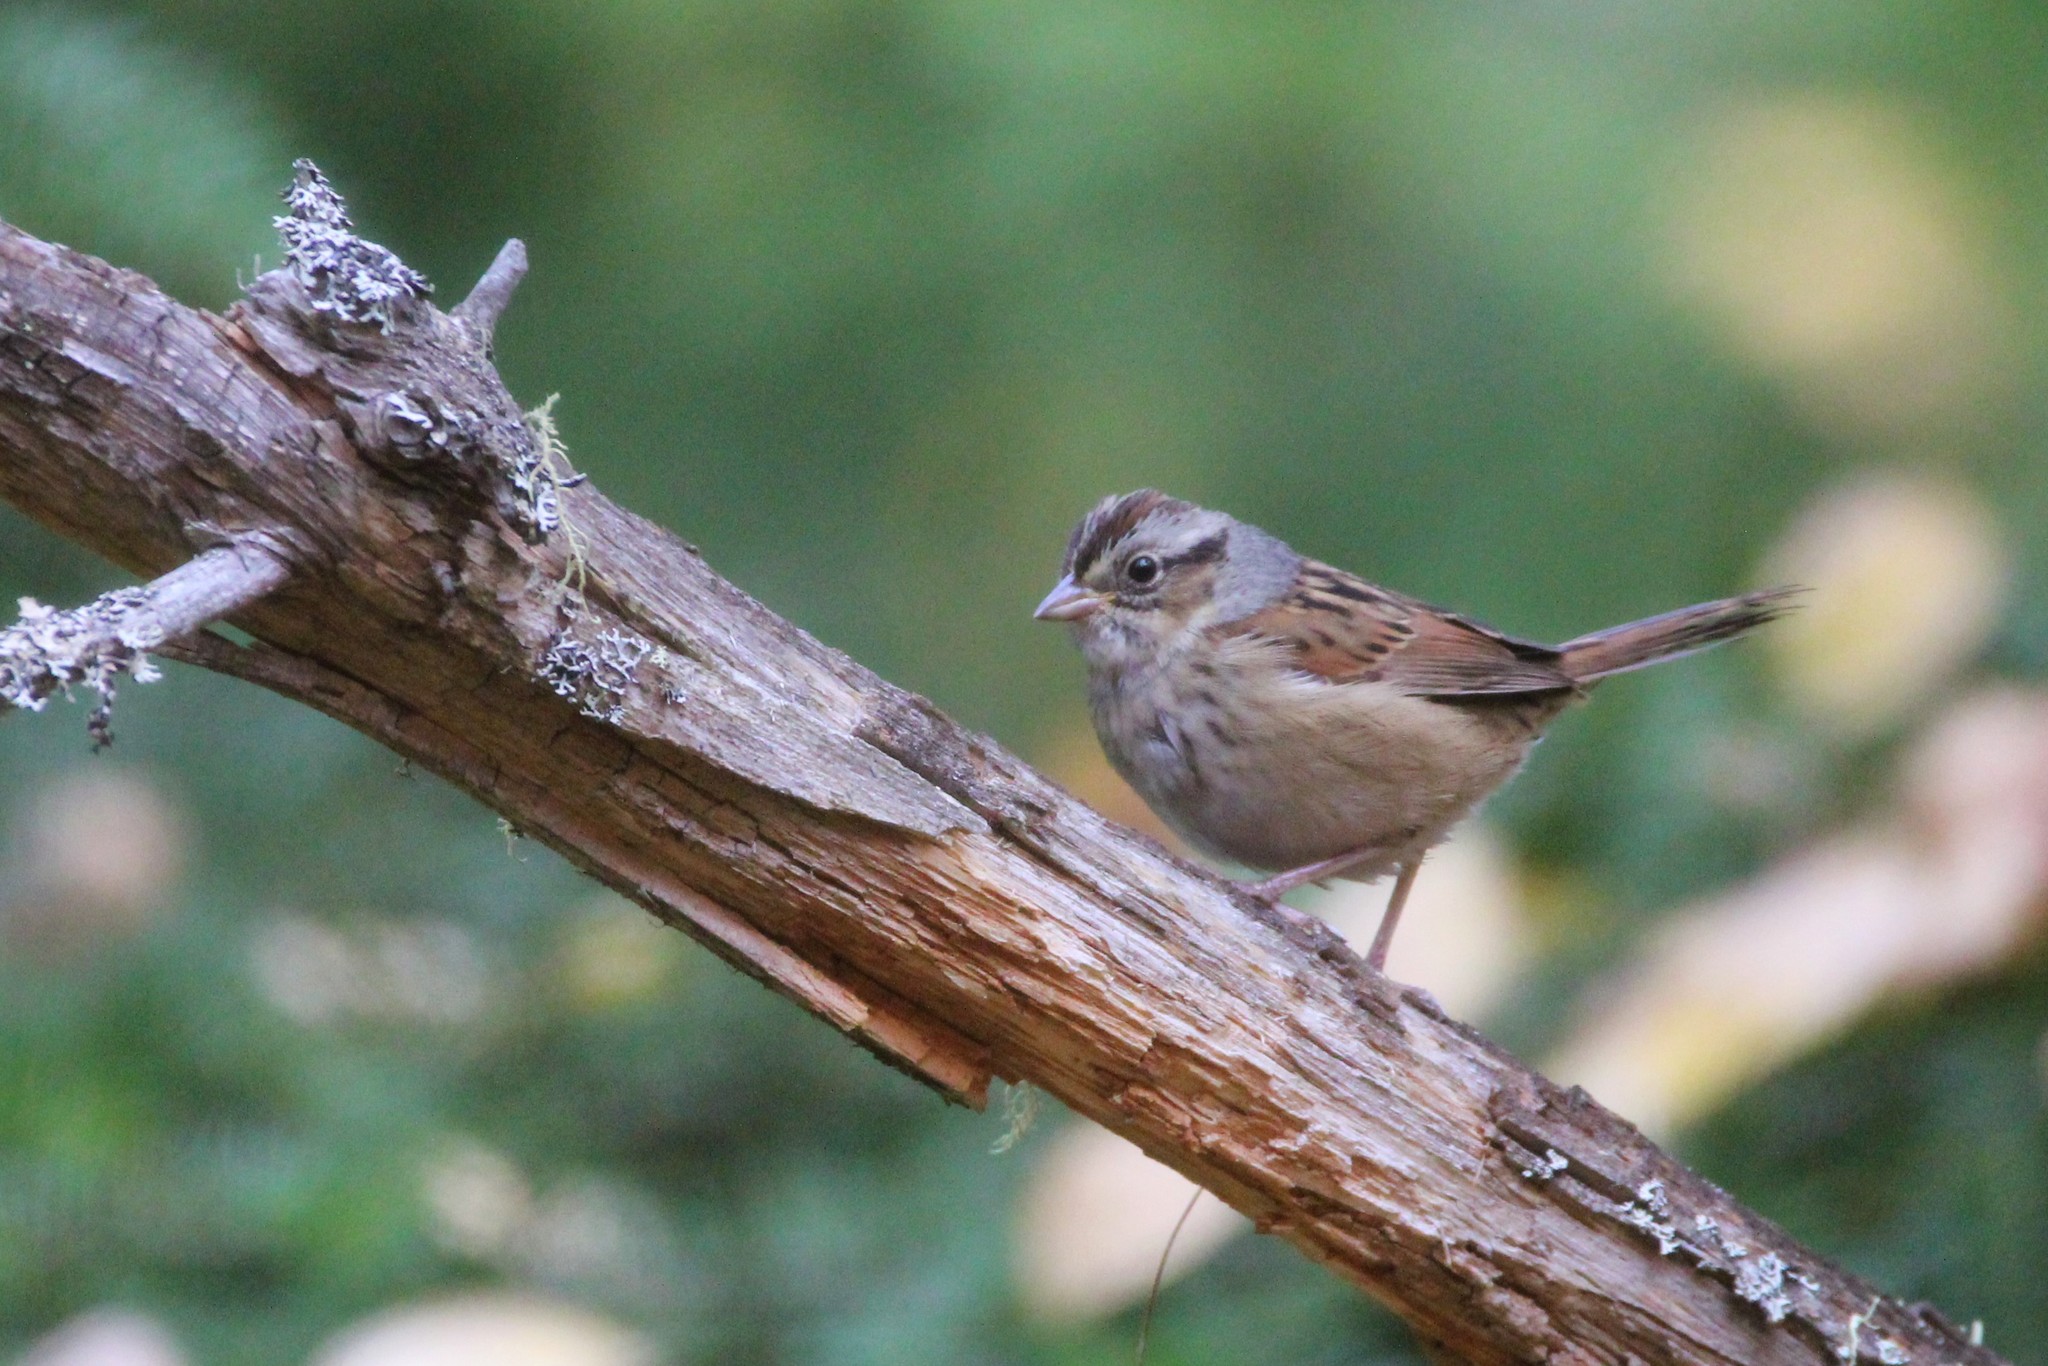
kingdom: Animalia
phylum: Chordata
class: Aves
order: Passeriformes
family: Passerellidae
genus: Melospiza
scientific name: Melospiza georgiana
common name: Swamp sparrow
